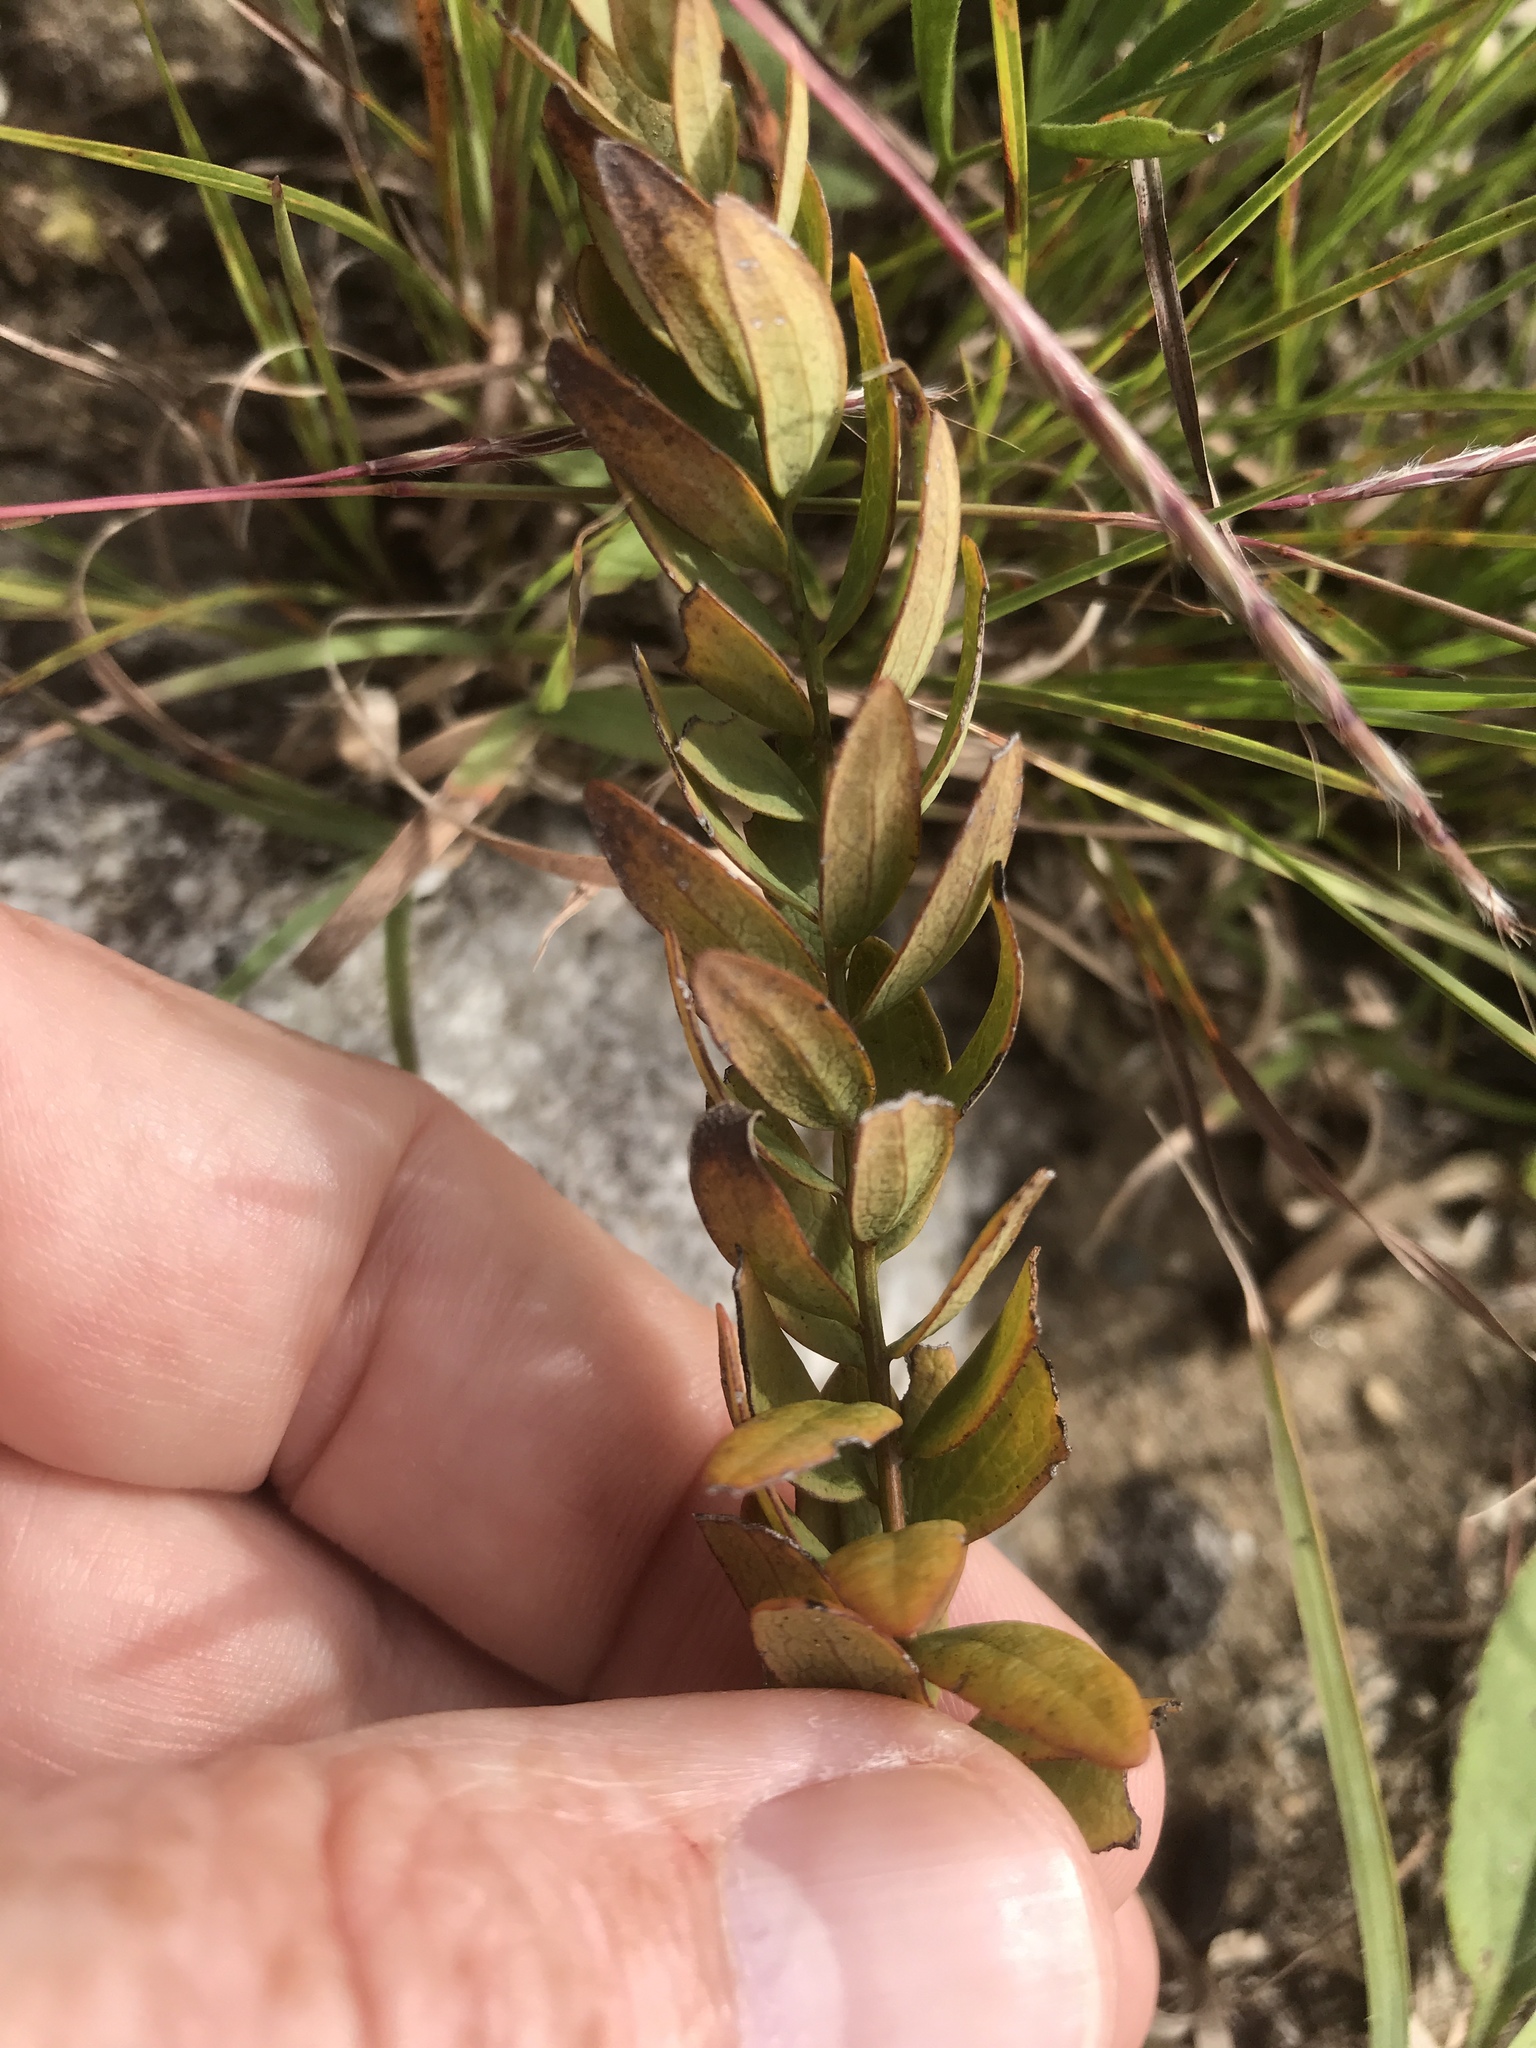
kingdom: Plantae
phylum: Tracheophyta
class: Magnoliopsida
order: Santalales
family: Comandraceae
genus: Comandra
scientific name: Comandra umbellata
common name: Bastard toadflax
